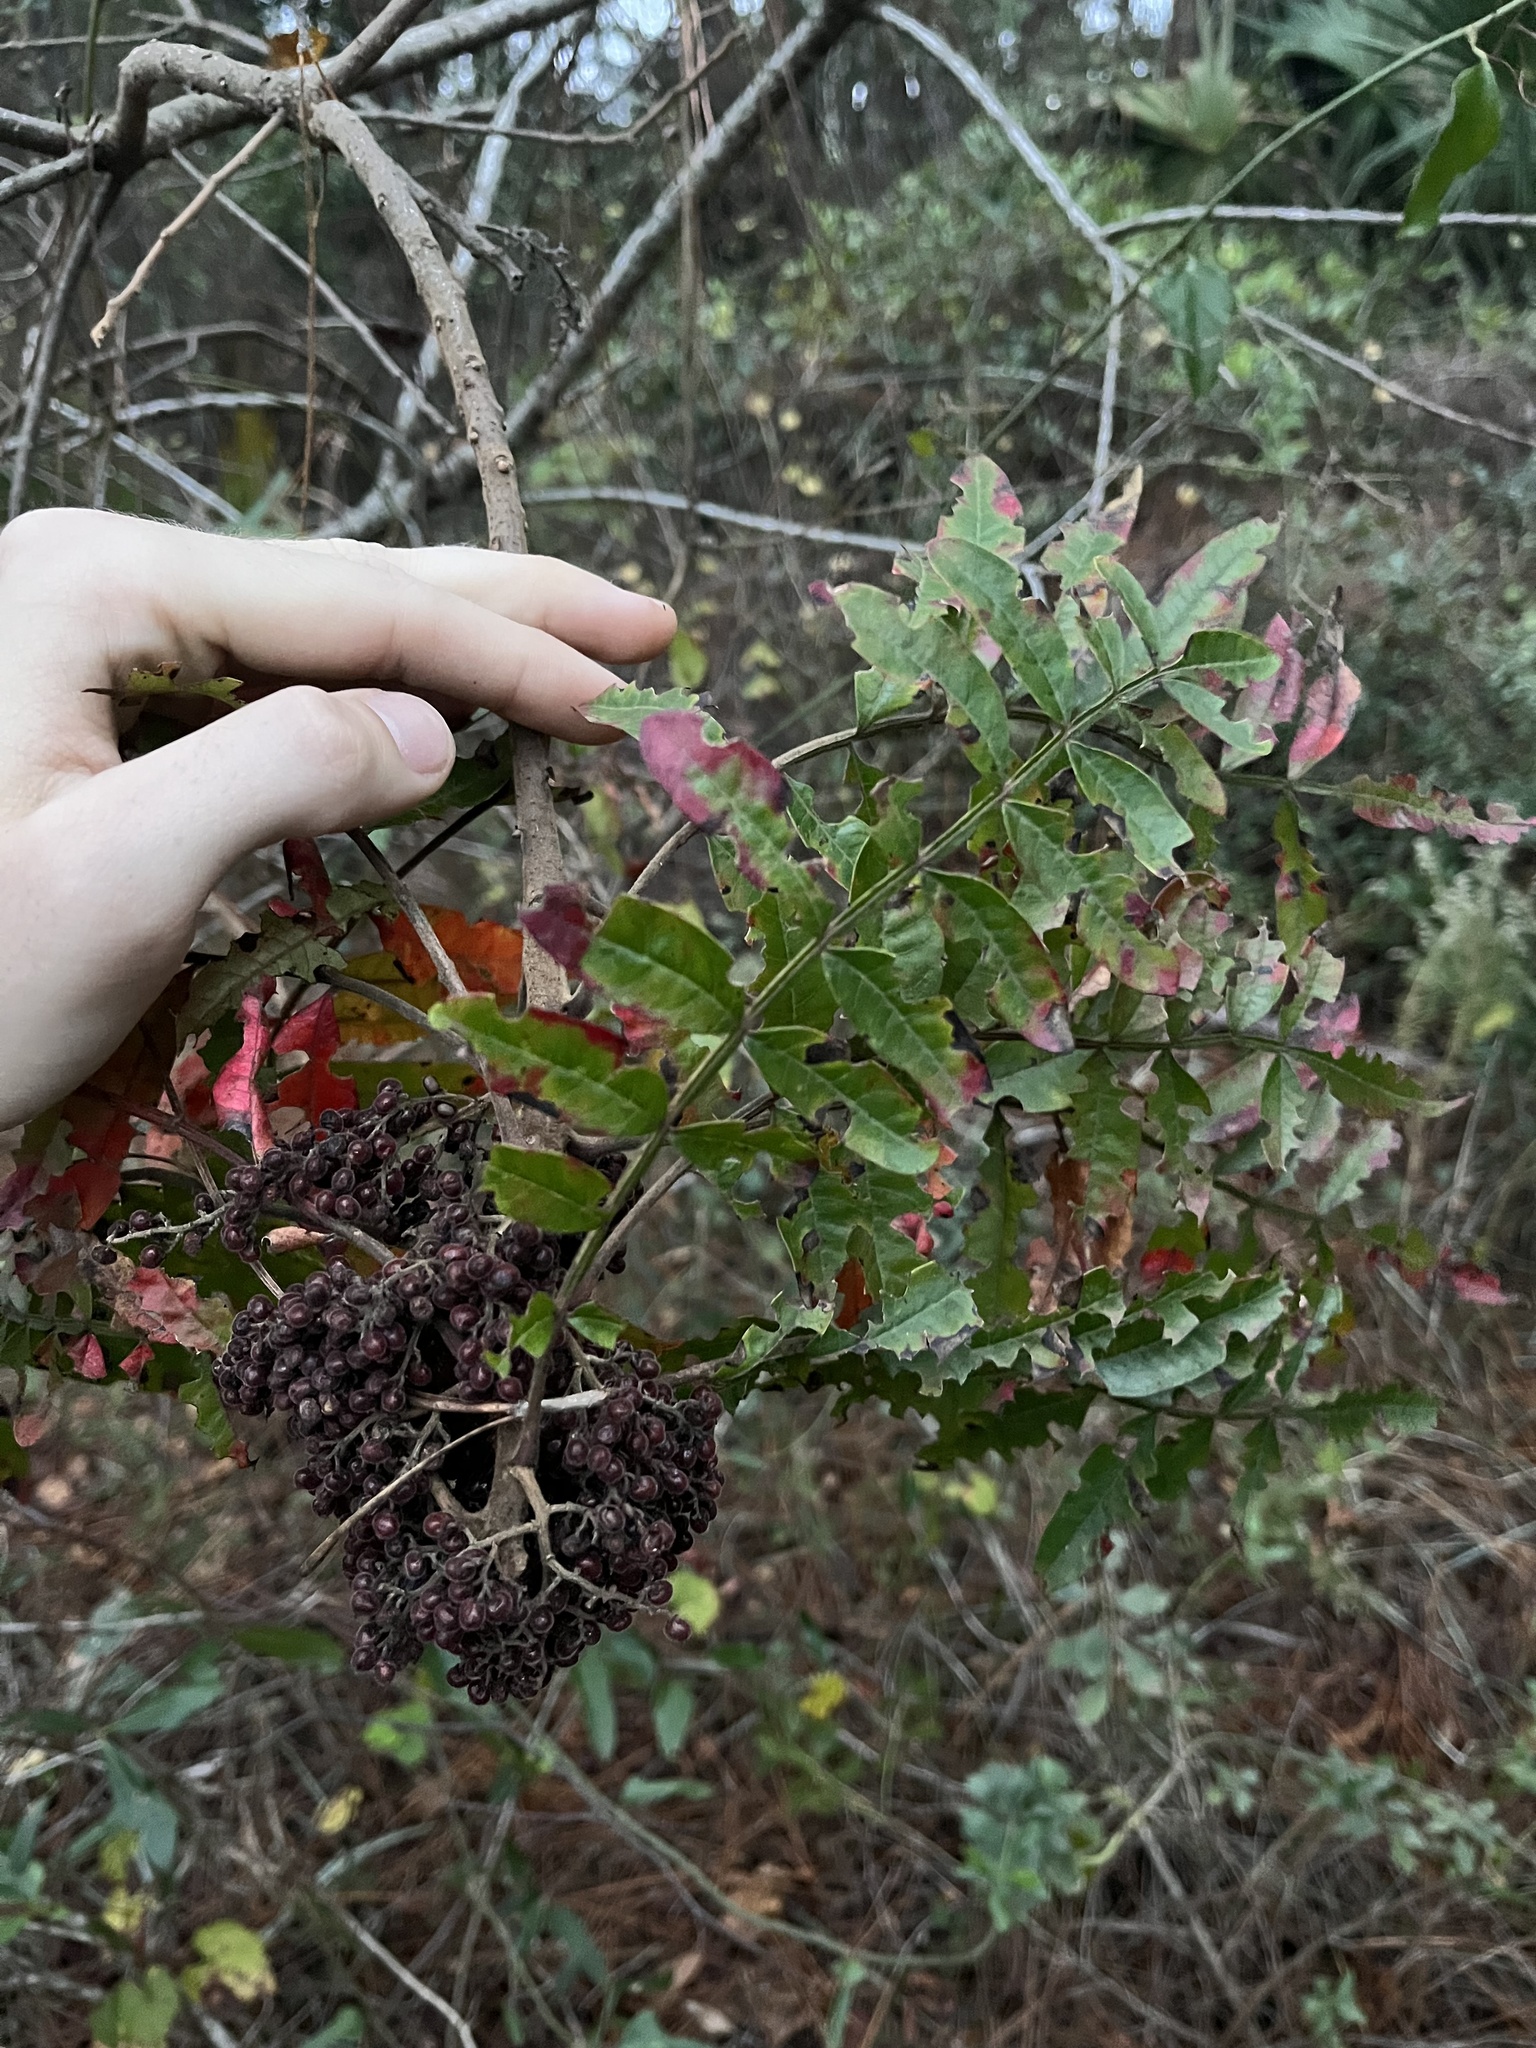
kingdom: Plantae
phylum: Tracheophyta
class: Magnoliopsida
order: Sapindales
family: Anacardiaceae
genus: Rhus
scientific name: Rhus copallina
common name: Shining sumac
